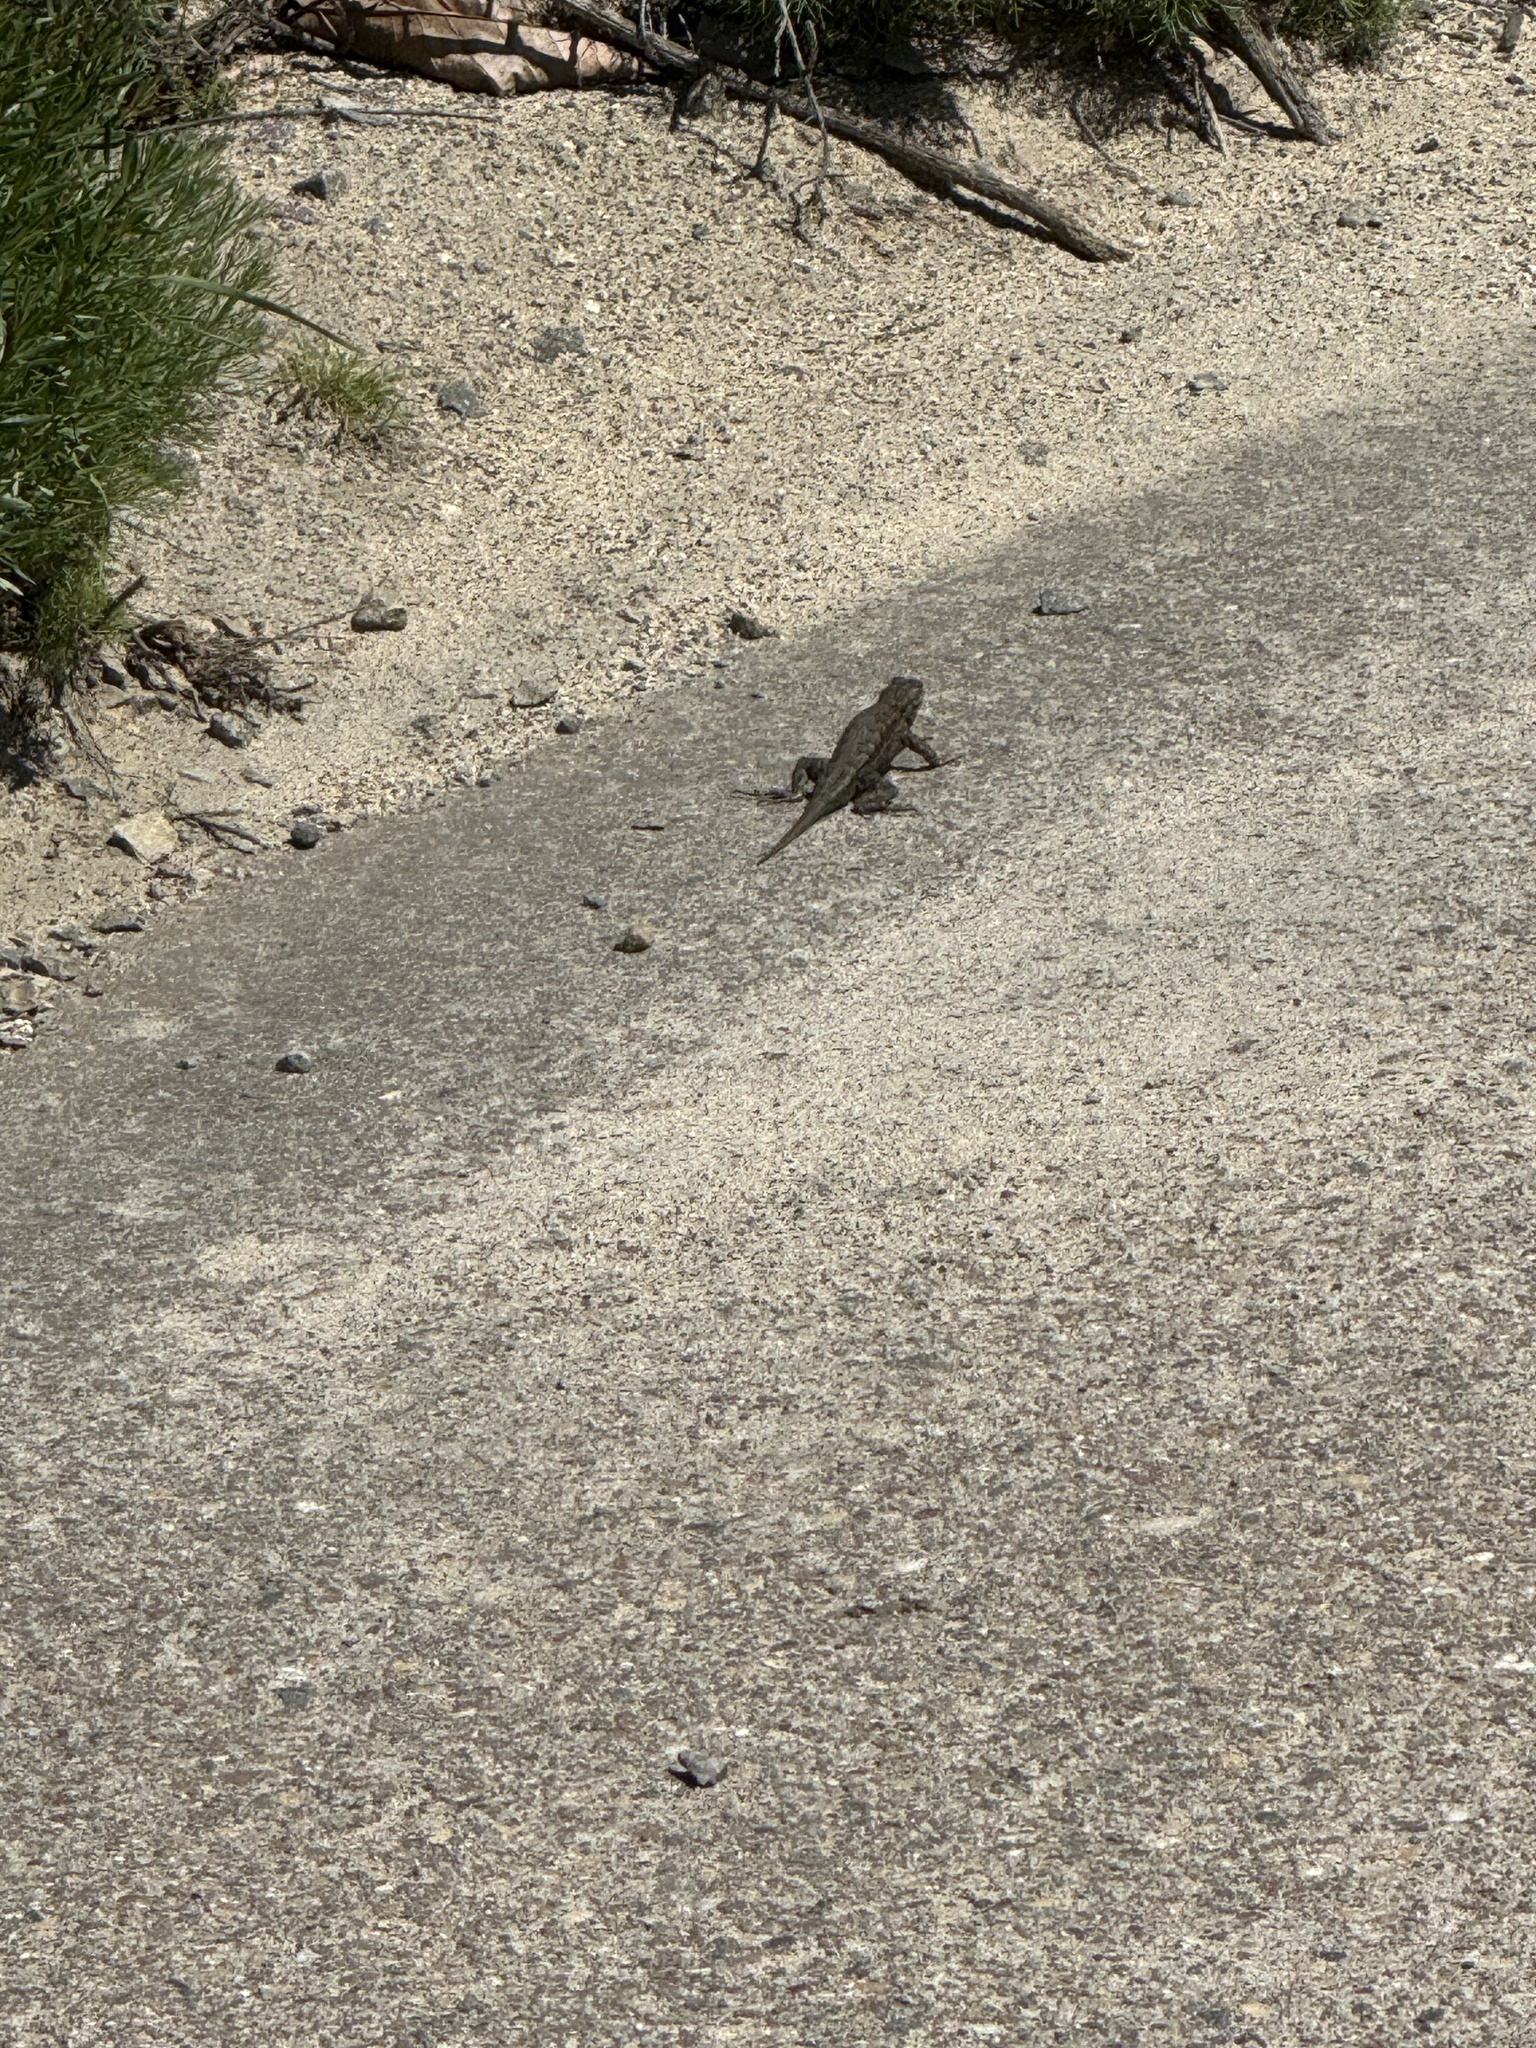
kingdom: Animalia
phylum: Chordata
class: Squamata
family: Phrynosomatidae
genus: Sceloporus
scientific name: Sceloporus occidentalis
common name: Western fence lizard
